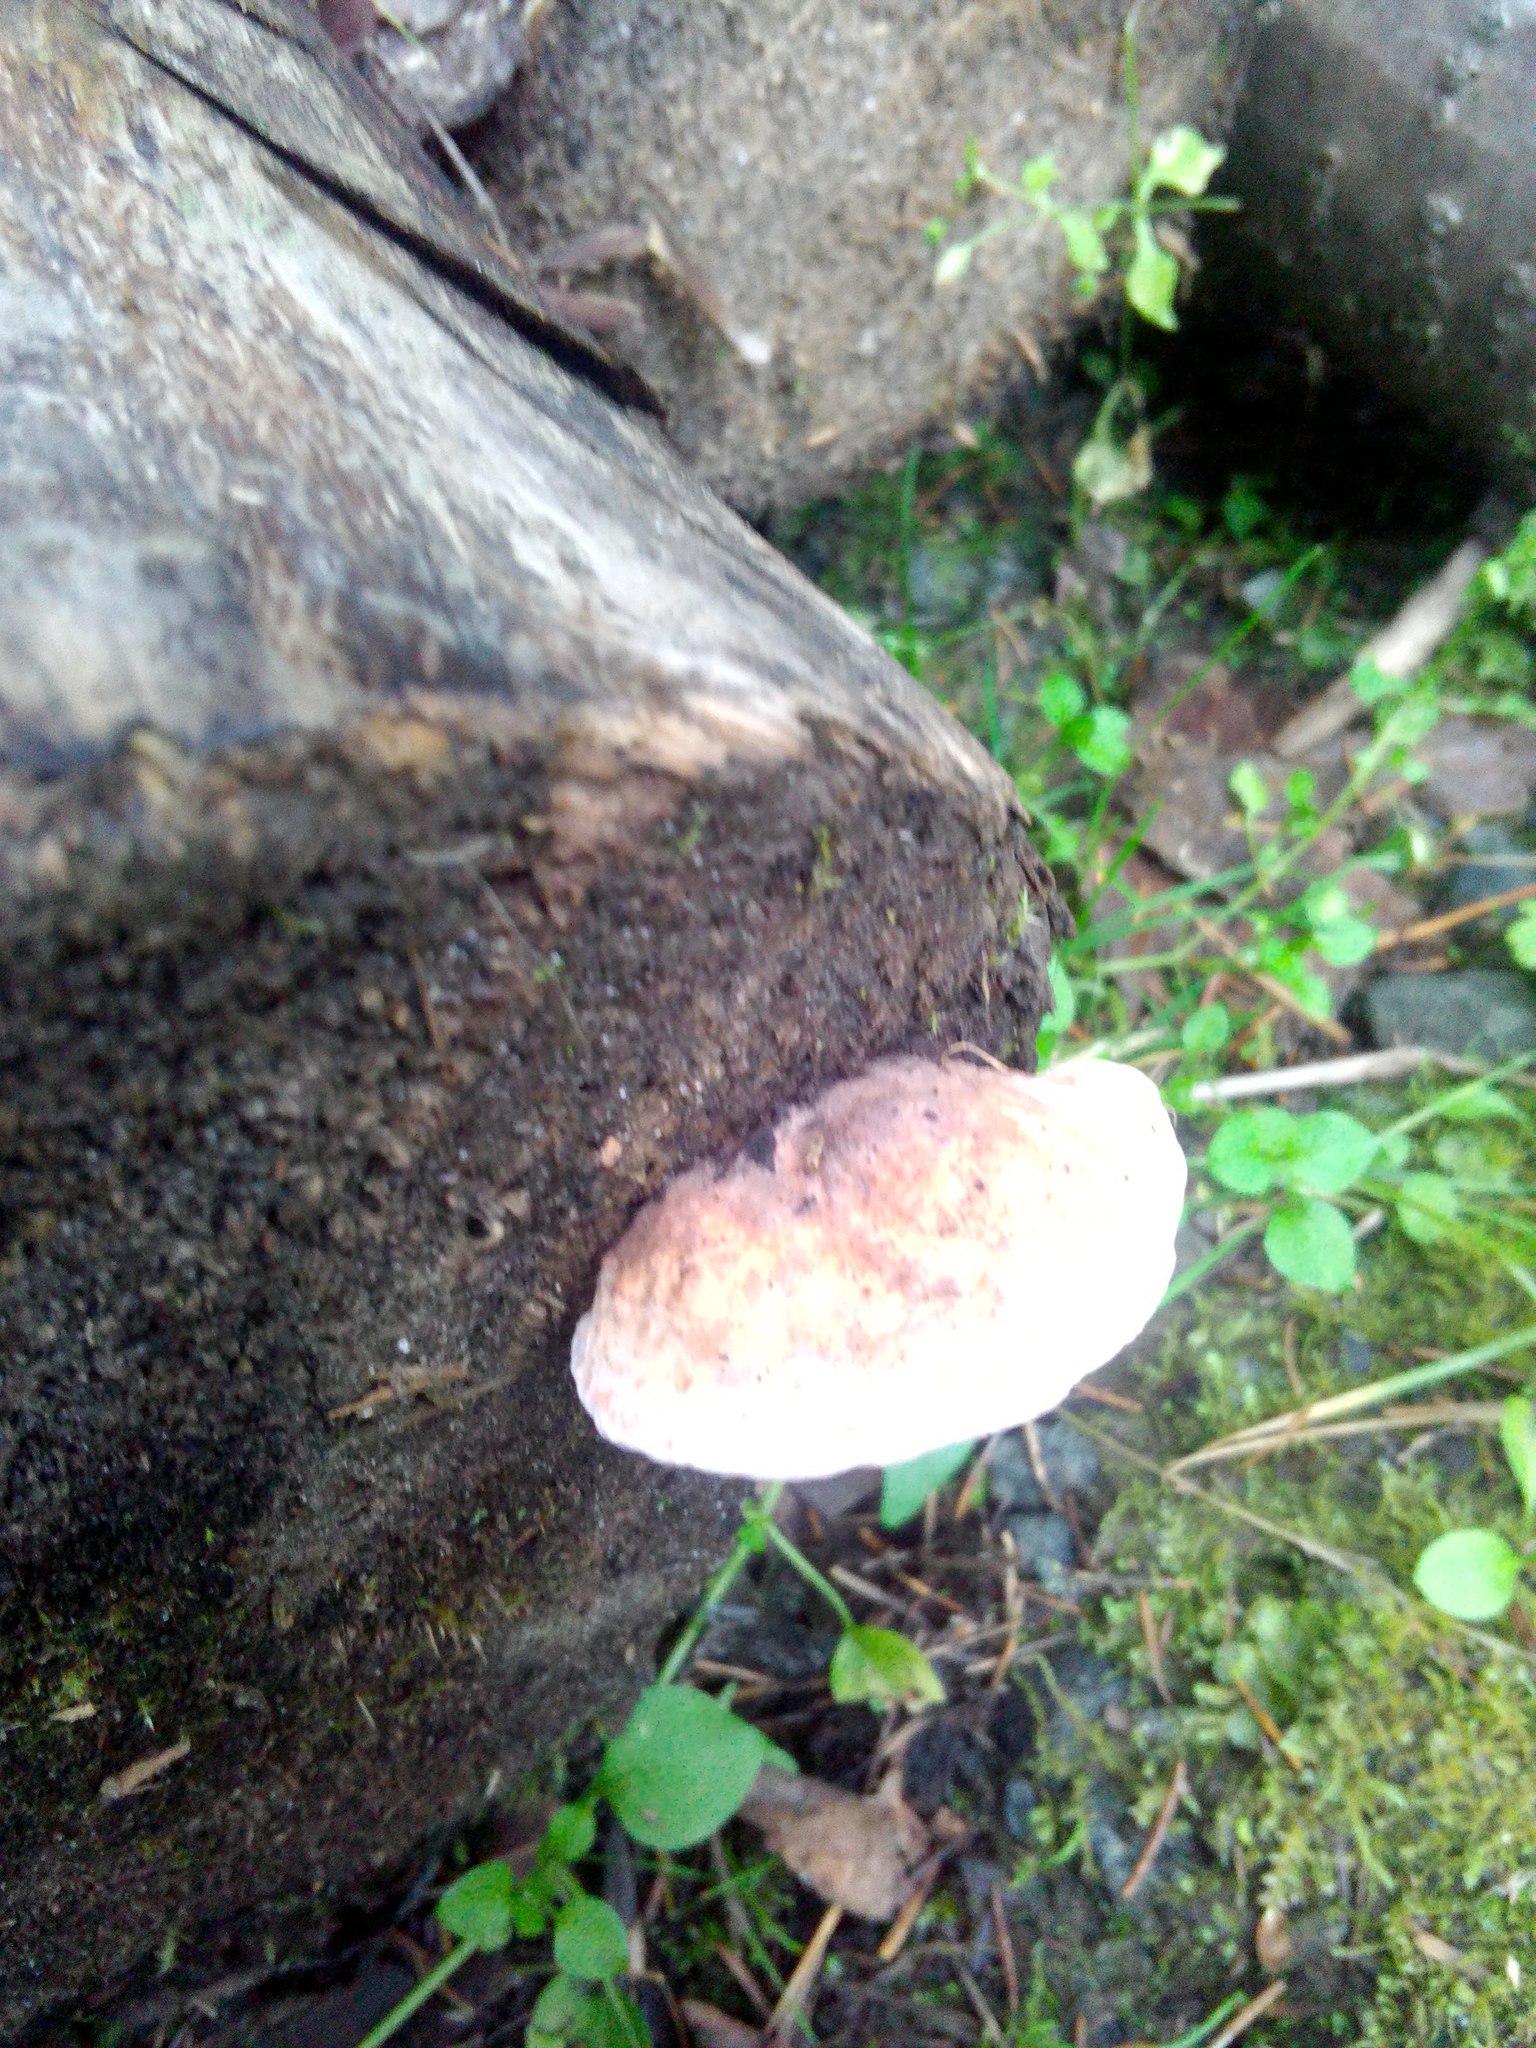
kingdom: Fungi
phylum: Basidiomycota
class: Agaricomycetes
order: Polyporales
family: Fomitopsidaceae
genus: Fomitopsis
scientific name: Fomitopsis pinicola
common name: Red-belted bracket
